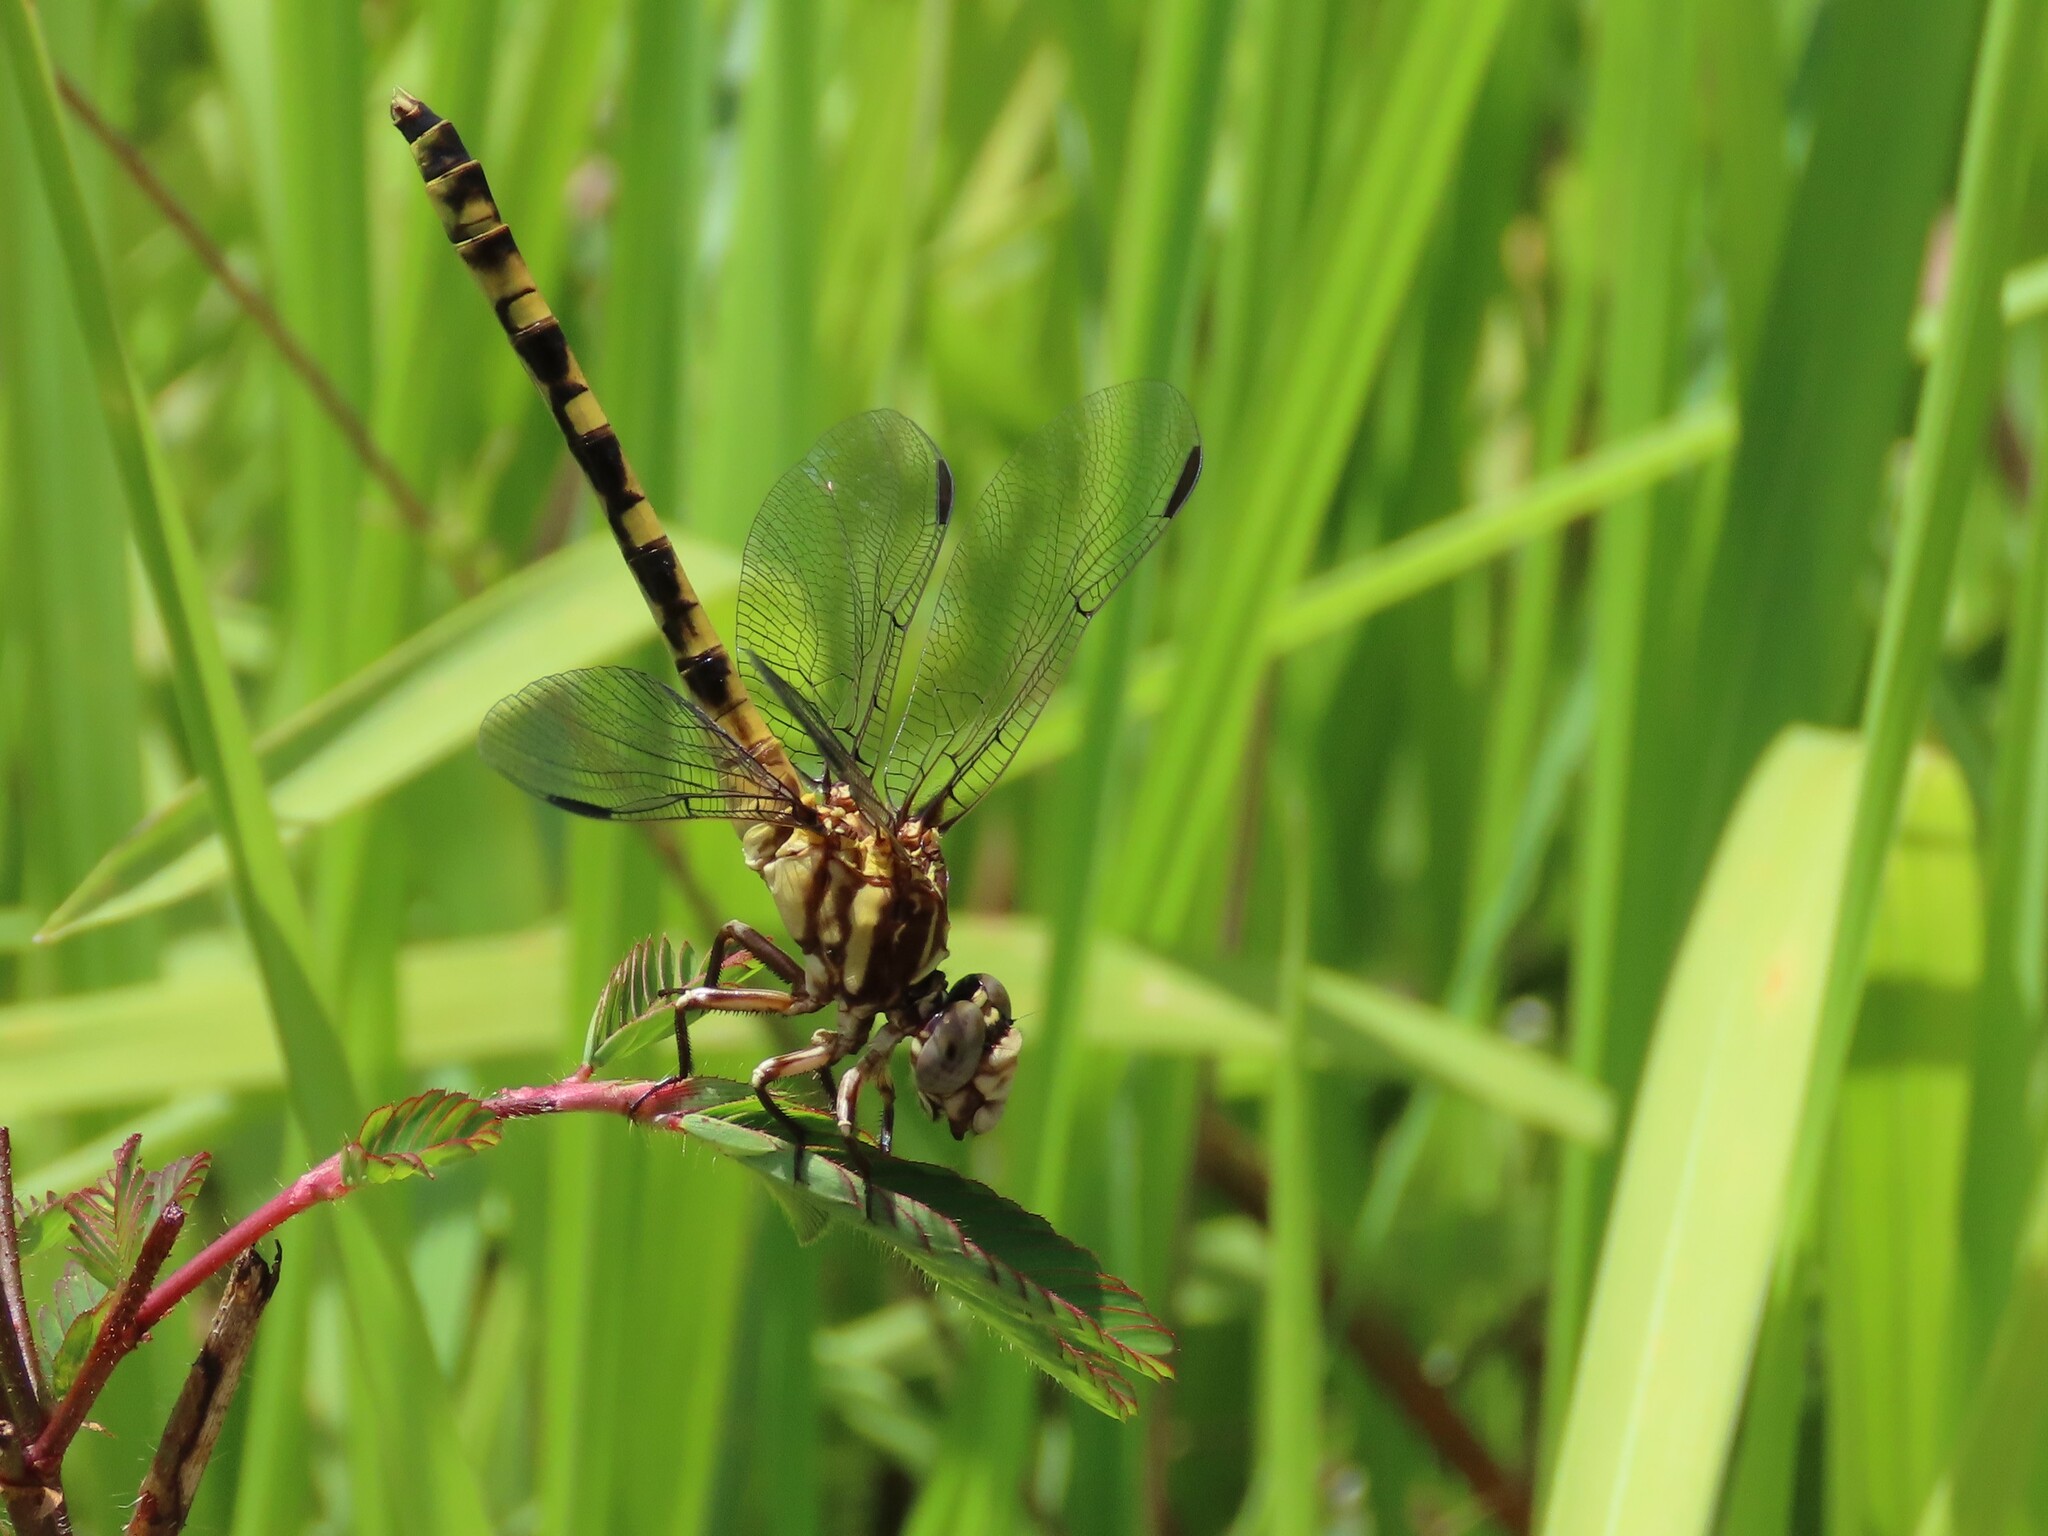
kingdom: Animalia
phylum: Arthropoda
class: Insecta
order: Odonata
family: Gomphidae
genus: Progomphus
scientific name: Progomphus alachuensis
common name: Tawny sanddragon
